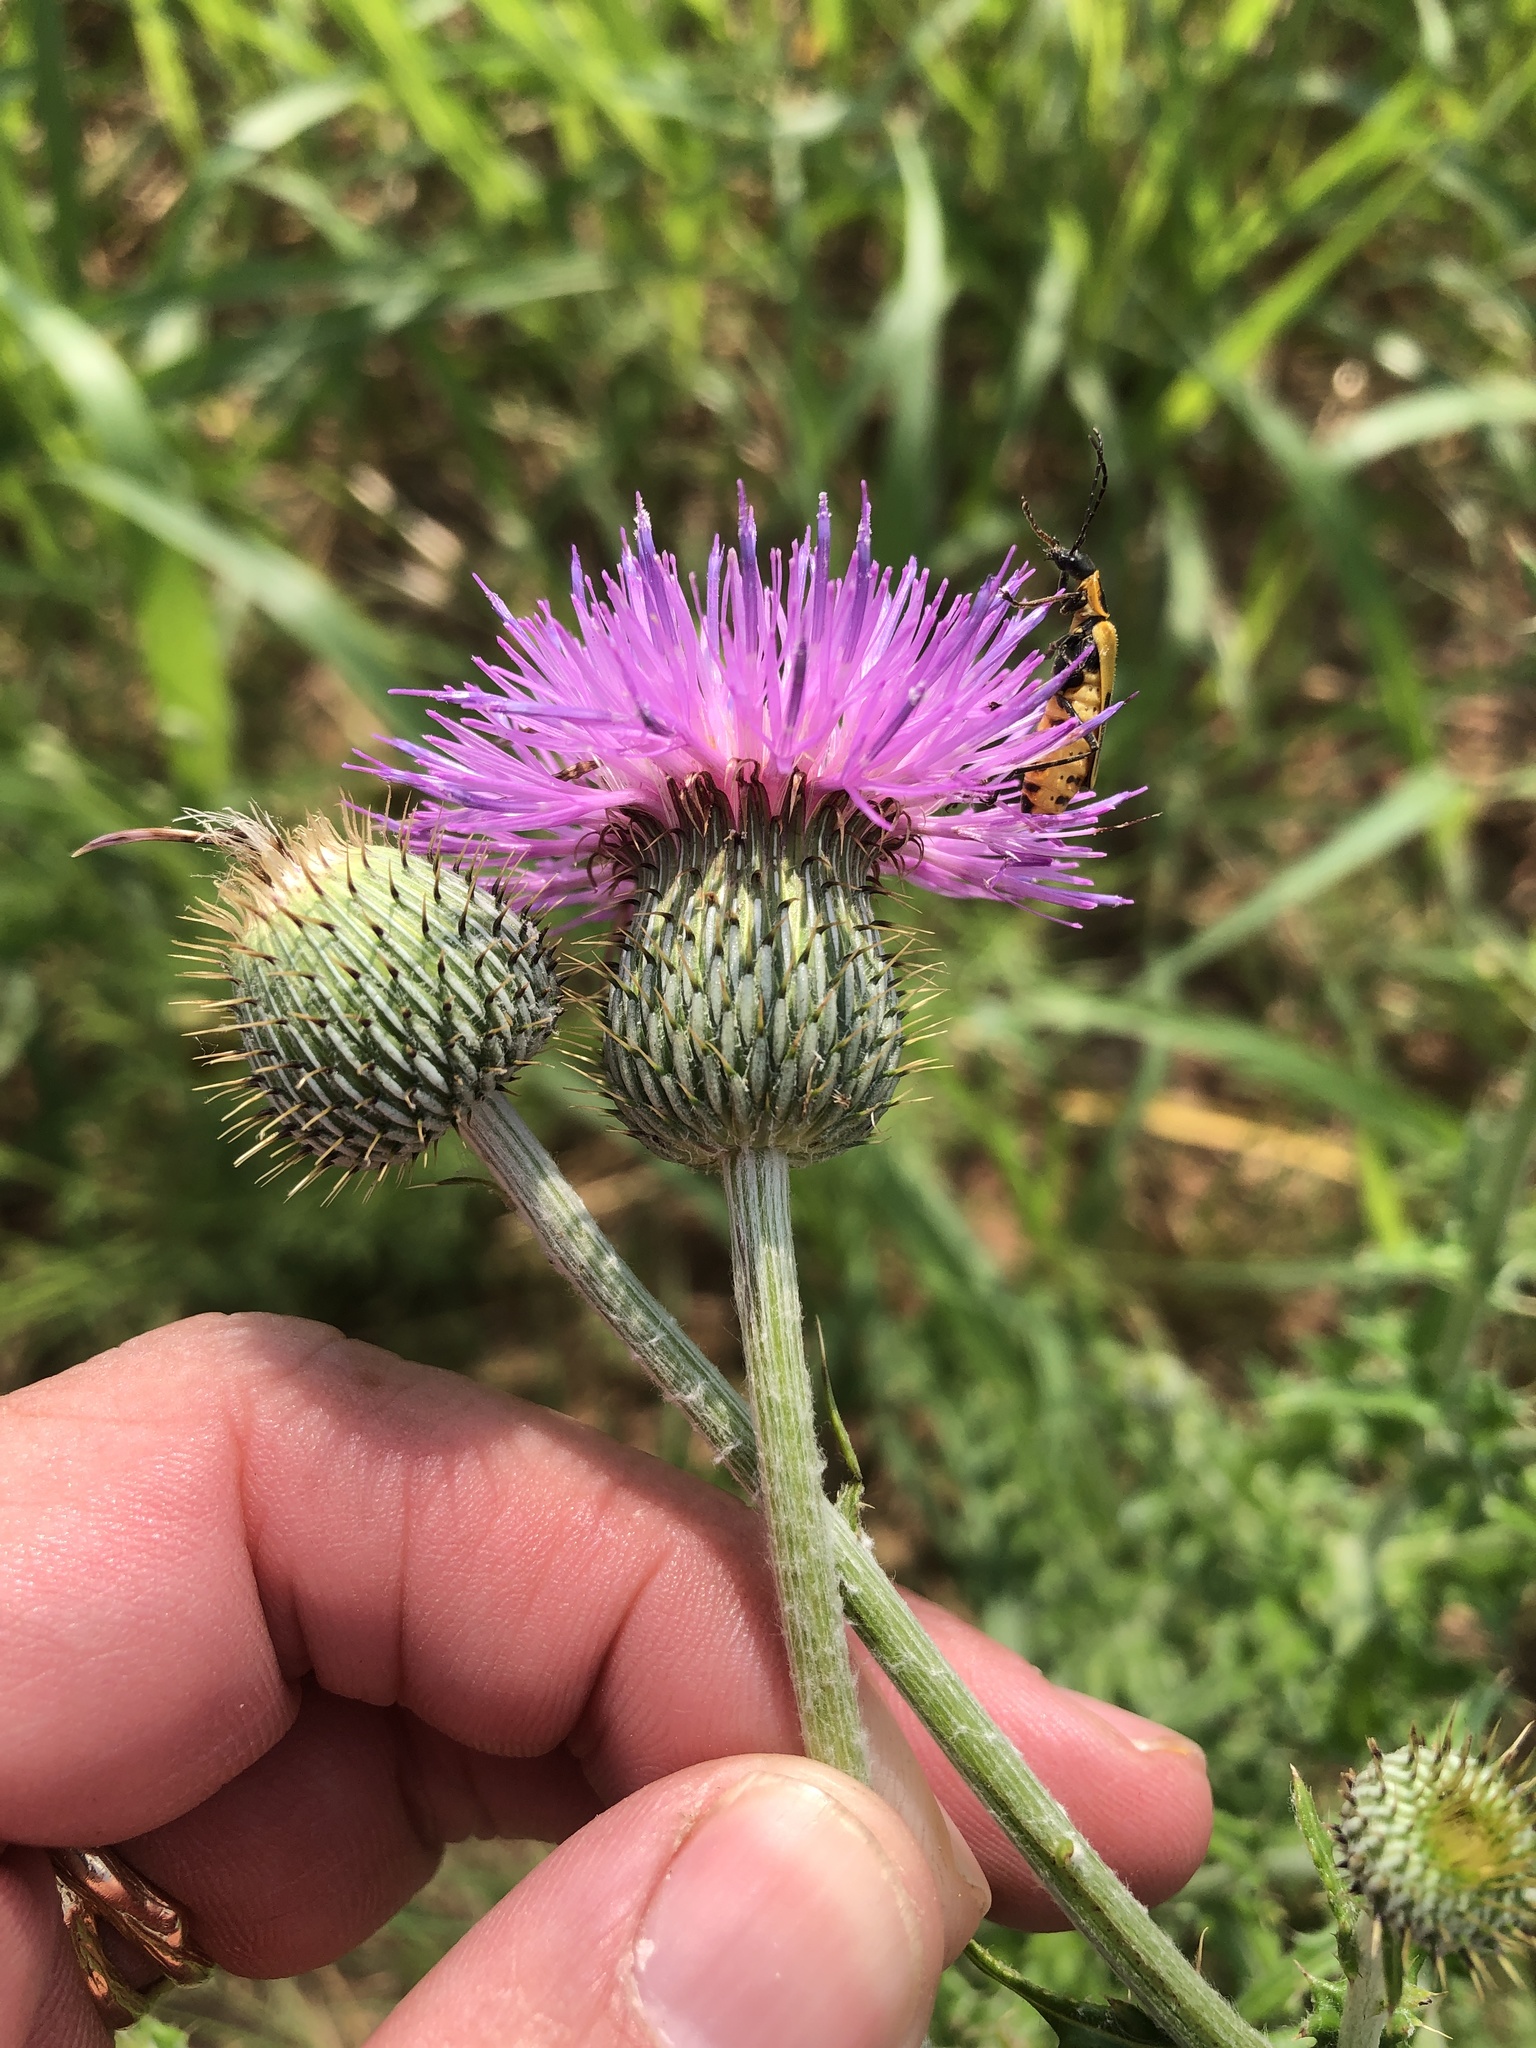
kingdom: Plantae
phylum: Tracheophyta
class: Magnoliopsida
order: Asterales
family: Asteraceae
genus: Cirsium
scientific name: Cirsium texanum
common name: Texas purple thistle
